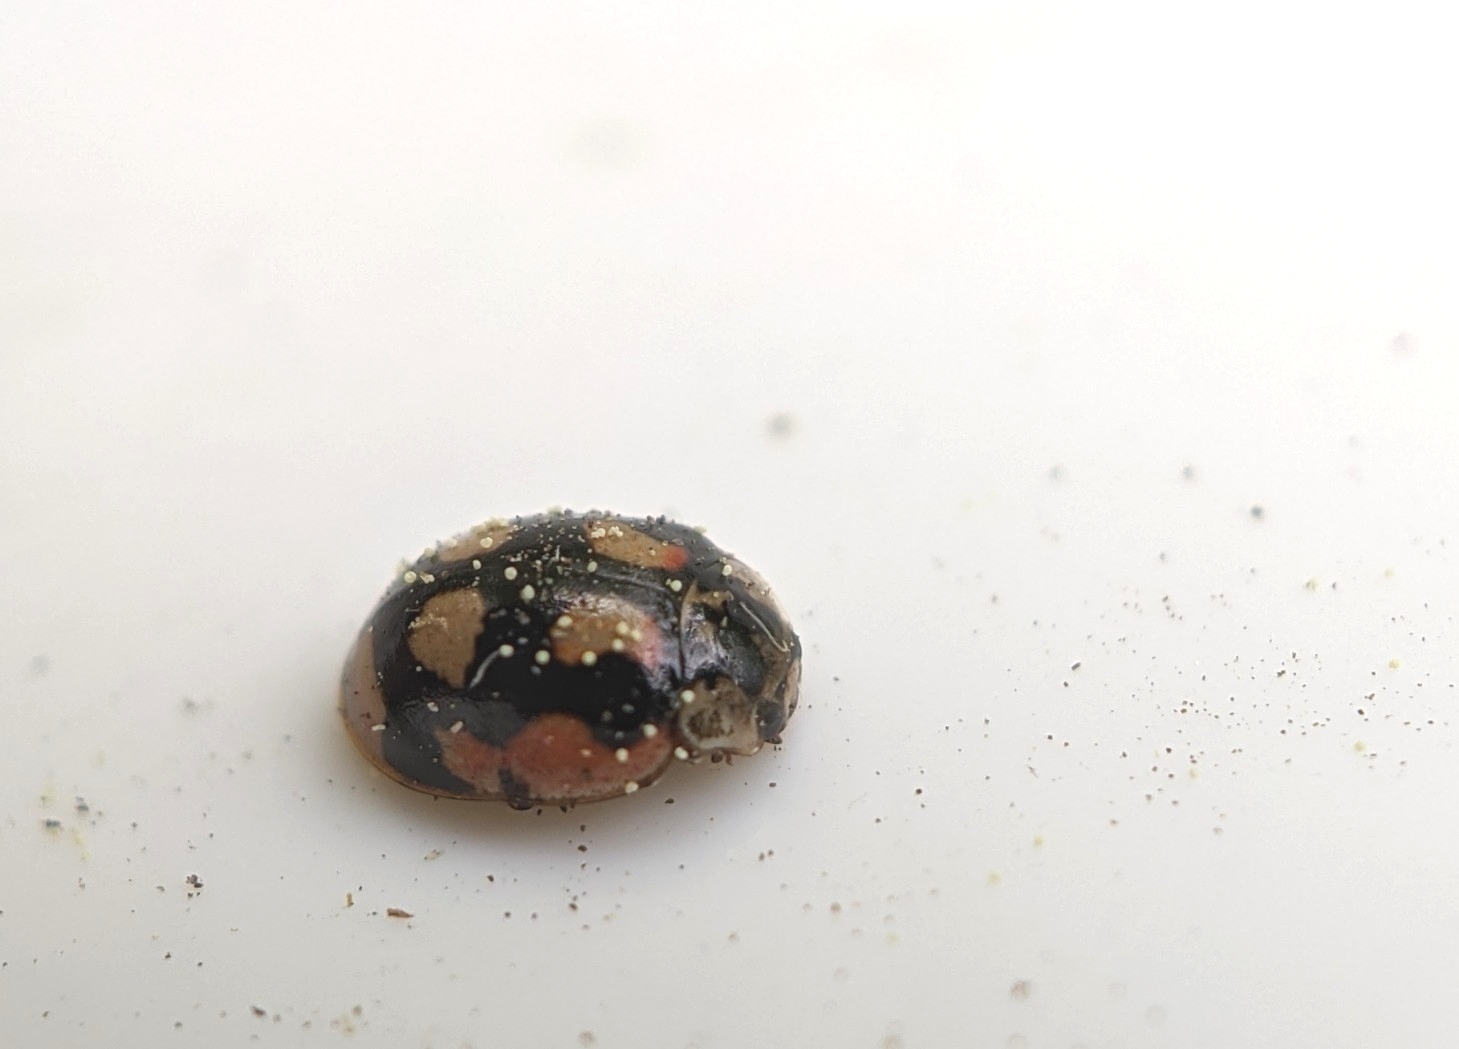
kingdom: Animalia
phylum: Arthropoda
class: Insecta
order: Coleoptera
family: Coccinellidae
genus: Adalia
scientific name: Adalia decempunctata
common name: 10-spot ladybird
